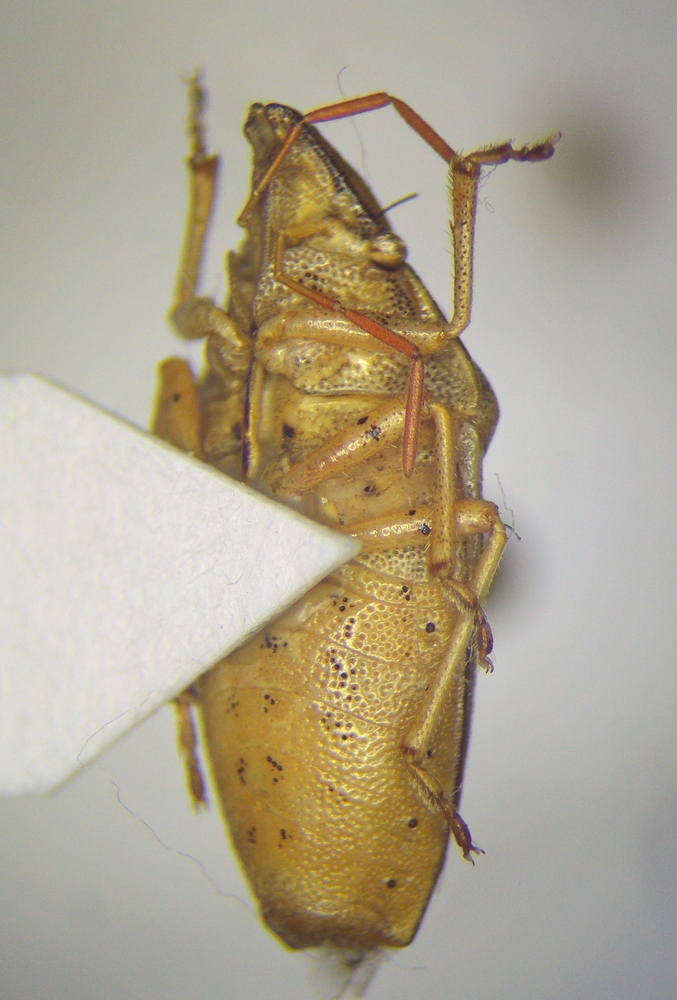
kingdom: Animalia
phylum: Arthropoda
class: Insecta
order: Hemiptera
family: Pentatomidae
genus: Aelia
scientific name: Aelia acuminata
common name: Bishop's mitre
